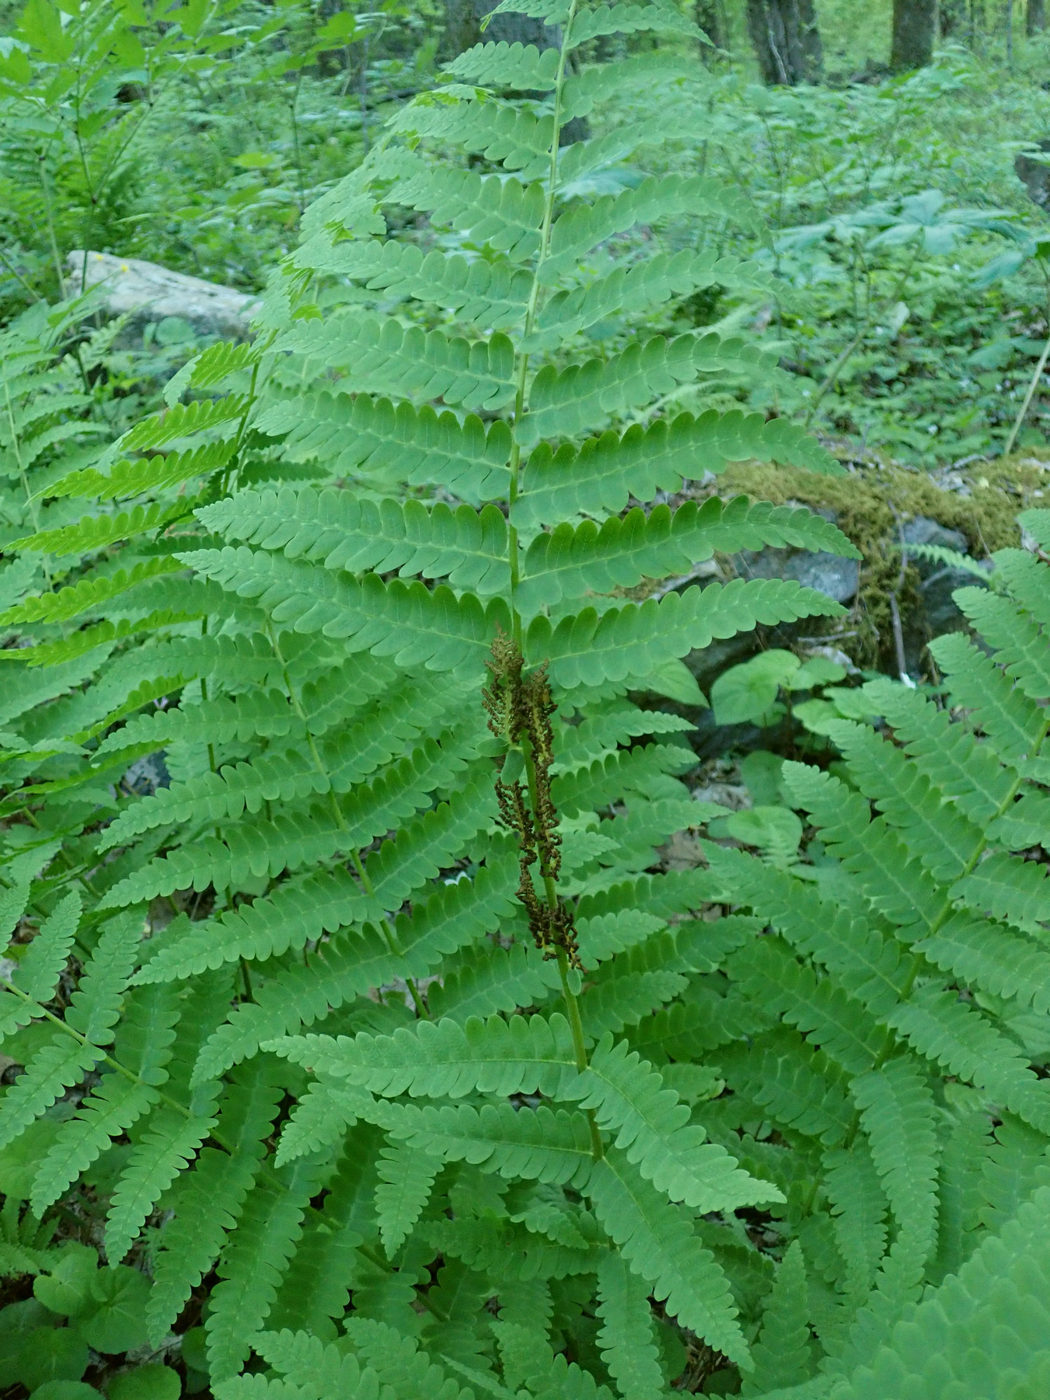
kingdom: Plantae
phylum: Tracheophyta
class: Polypodiopsida
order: Osmundales
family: Osmundaceae
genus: Claytosmunda
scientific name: Claytosmunda claytoniana
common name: Clayton's fern
